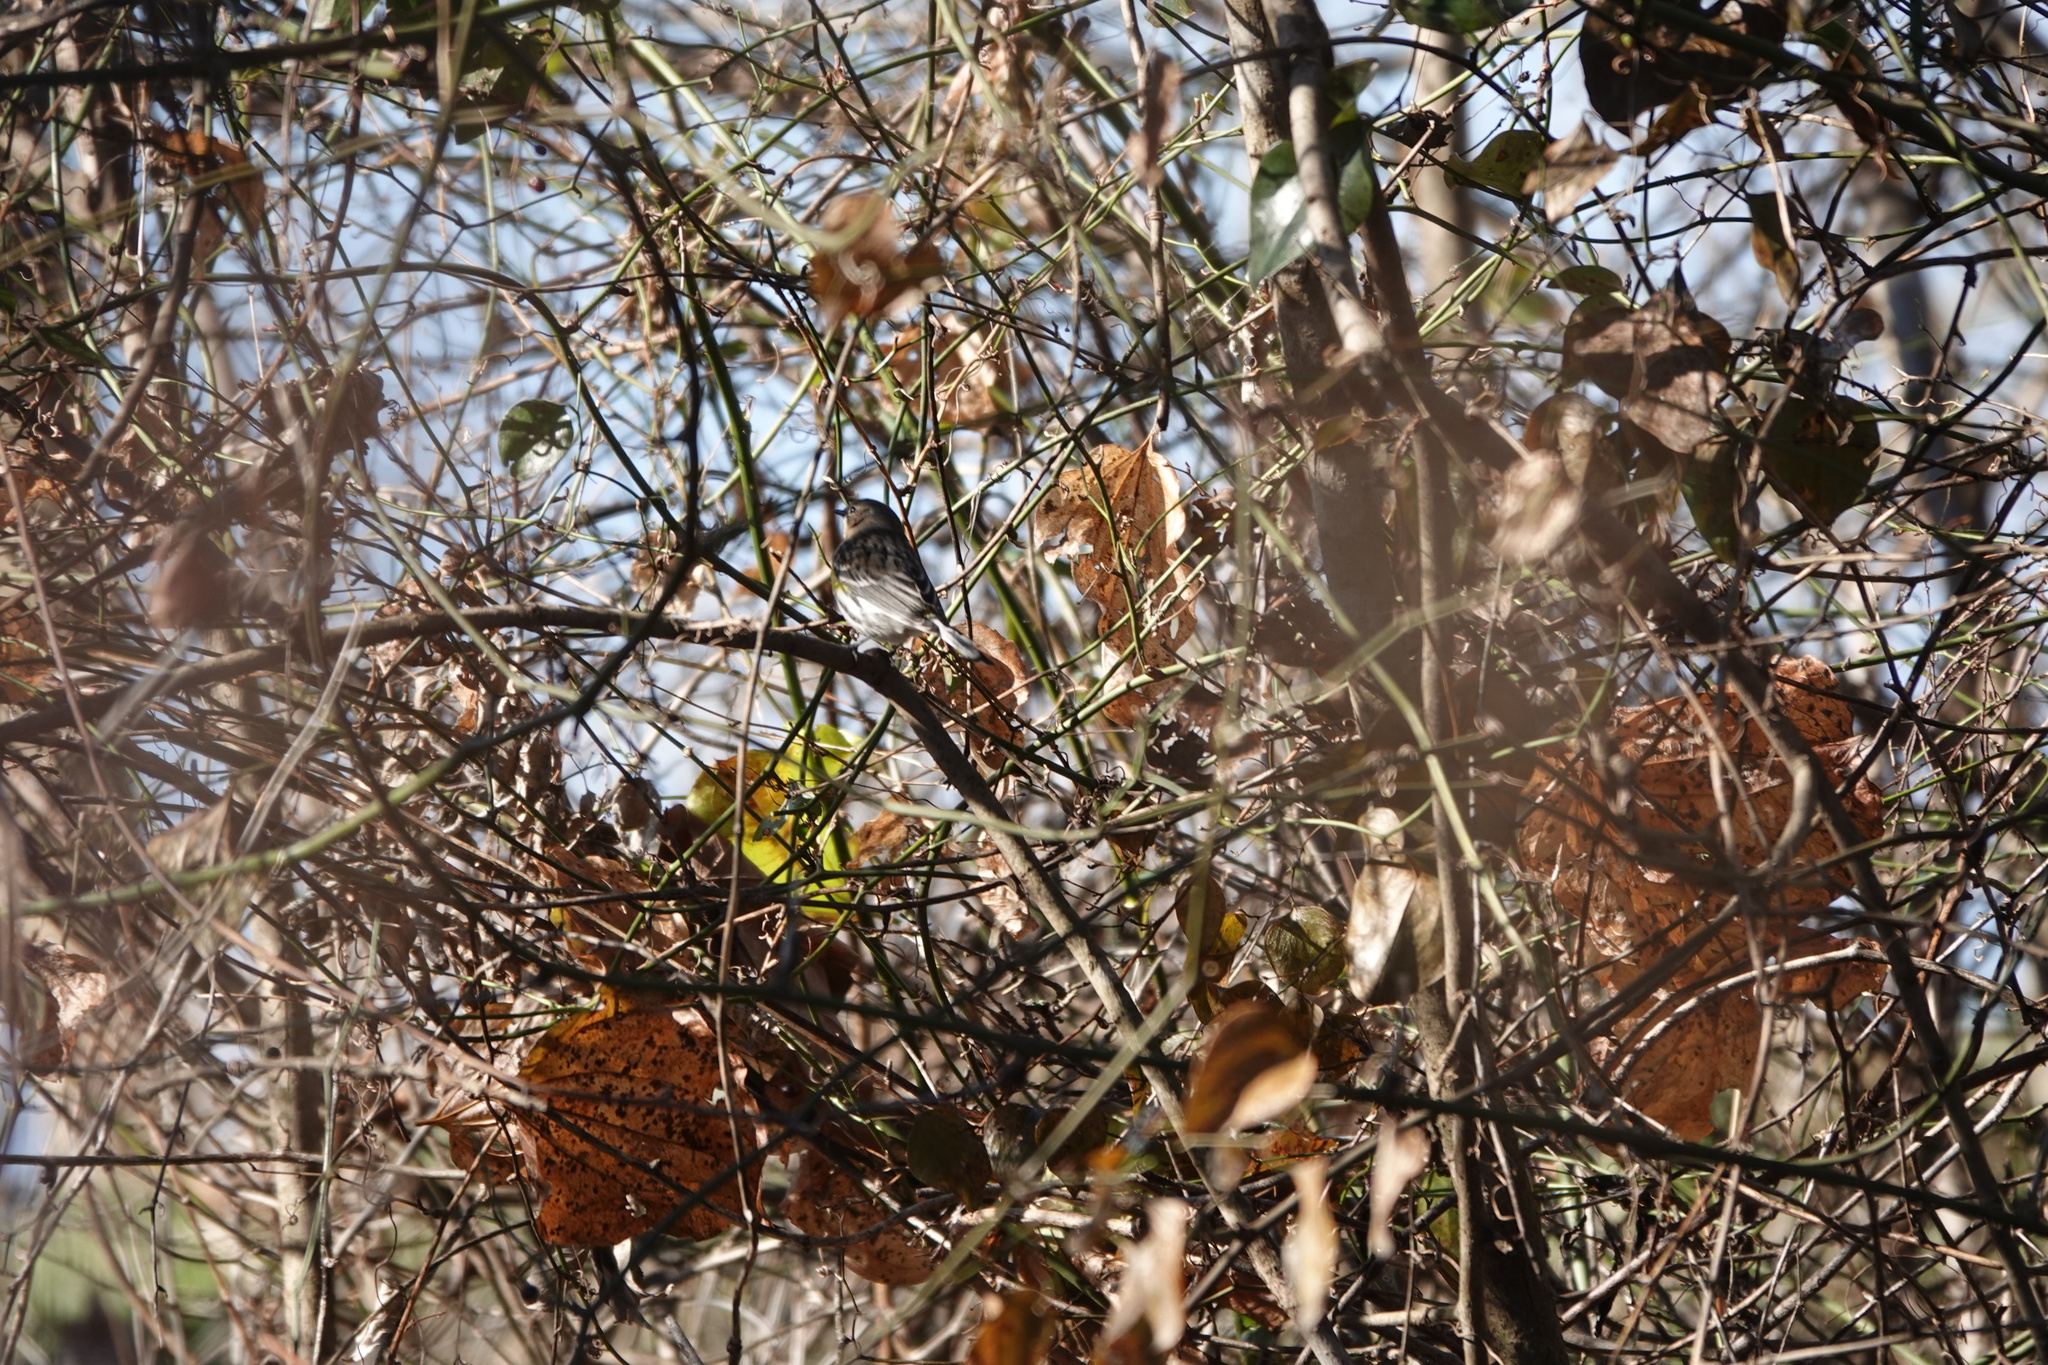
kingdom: Animalia
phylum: Chordata
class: Aves
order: Passeriformes
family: Parulidae
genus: Setophaga
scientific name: Setophaga coronata
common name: Myrtle warbler
